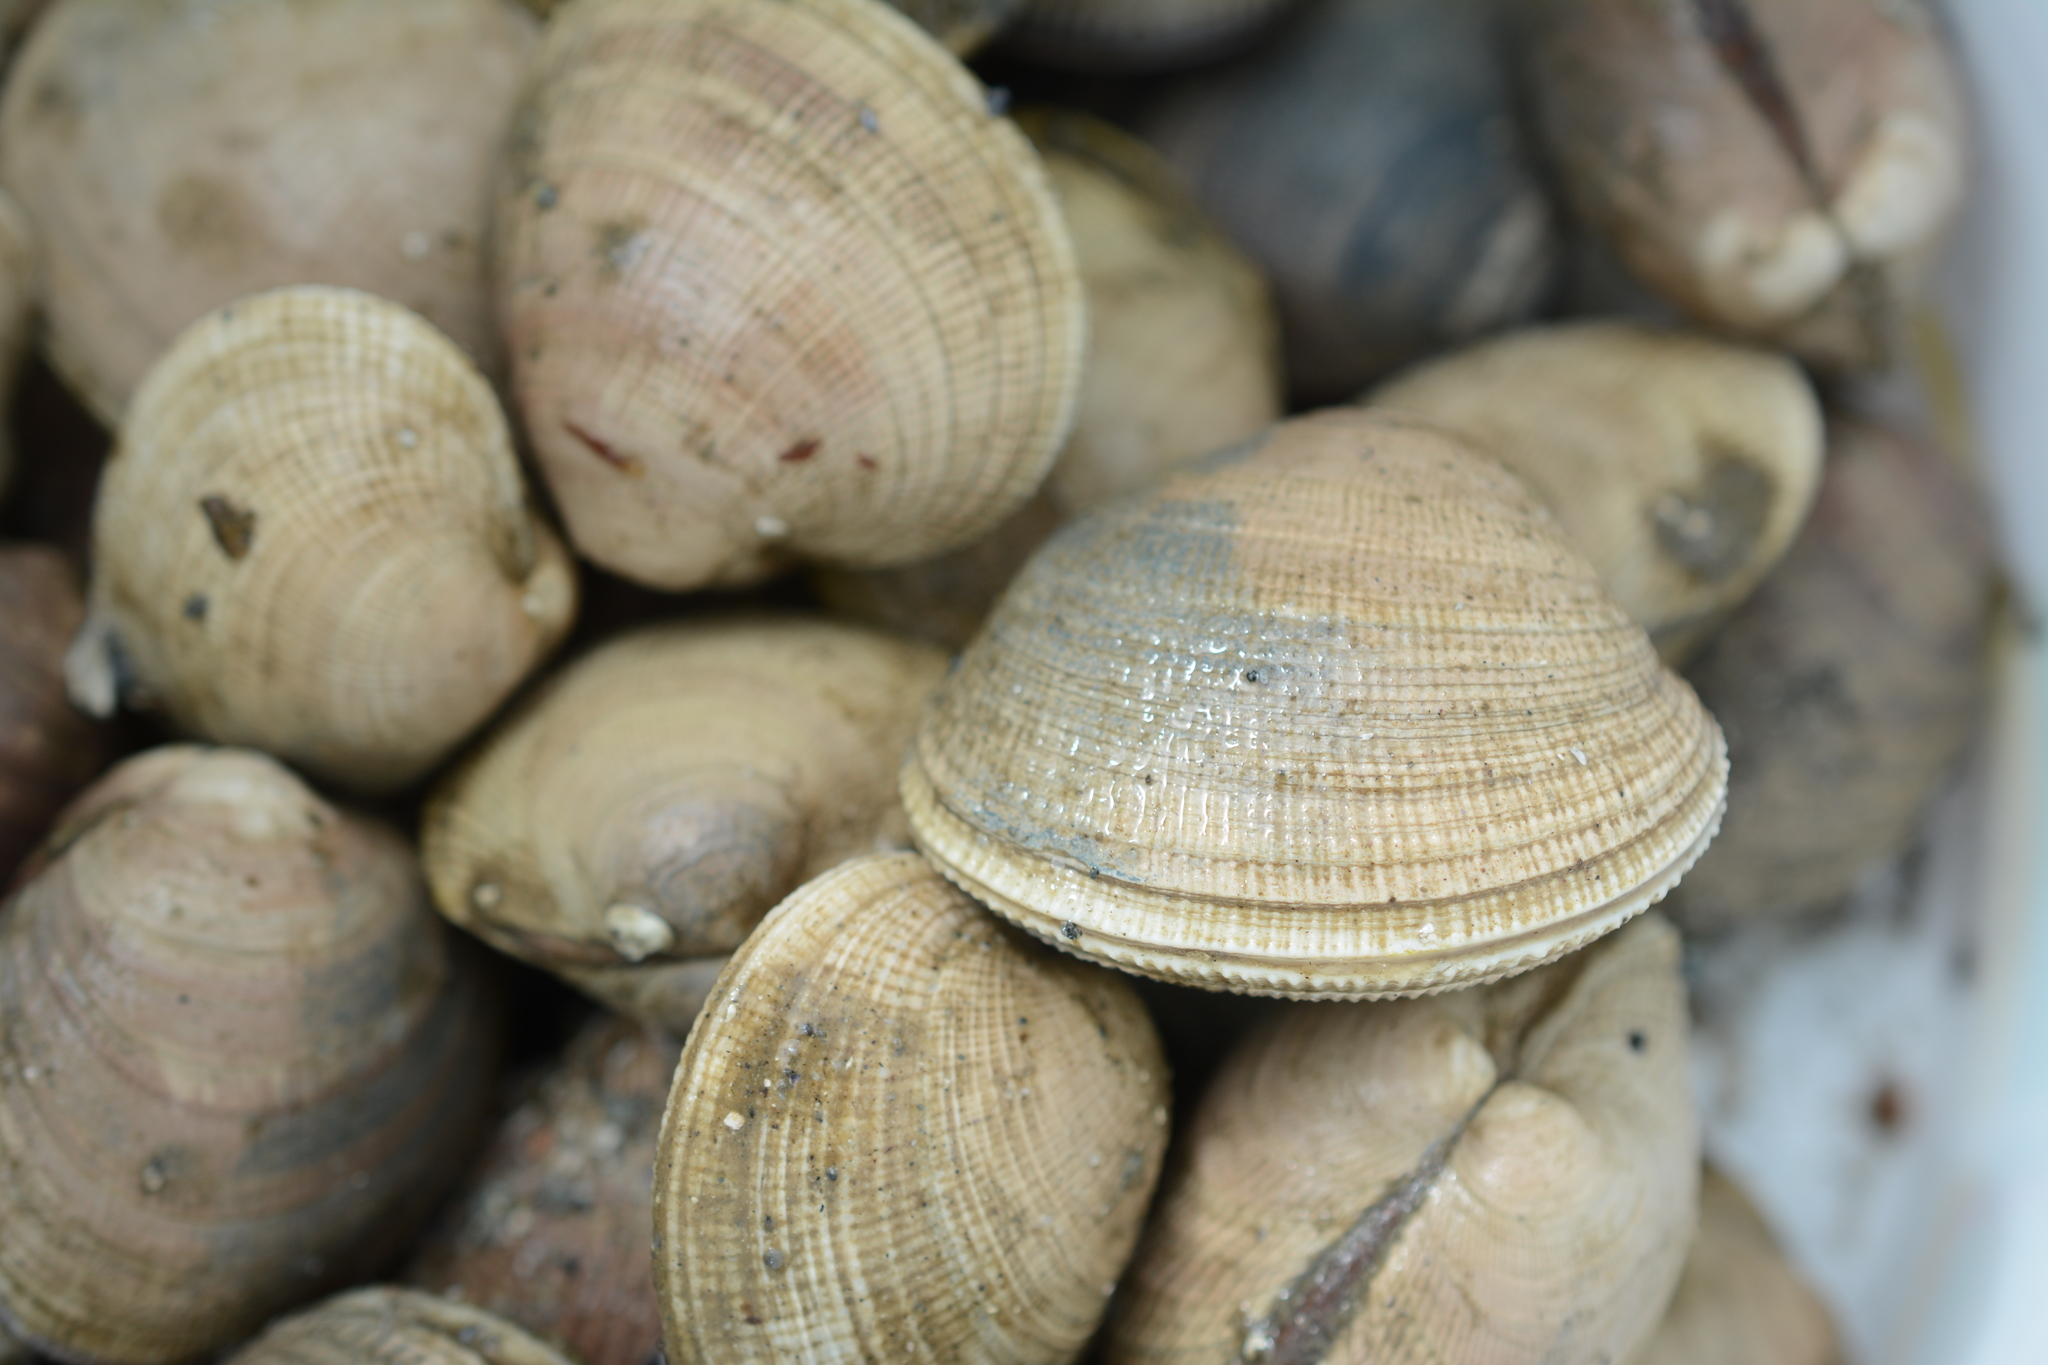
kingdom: Animalia
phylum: Mollusca
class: Bivalvia
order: Venerida
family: Veneridae
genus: Leukoma
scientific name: Leukoma staminea
